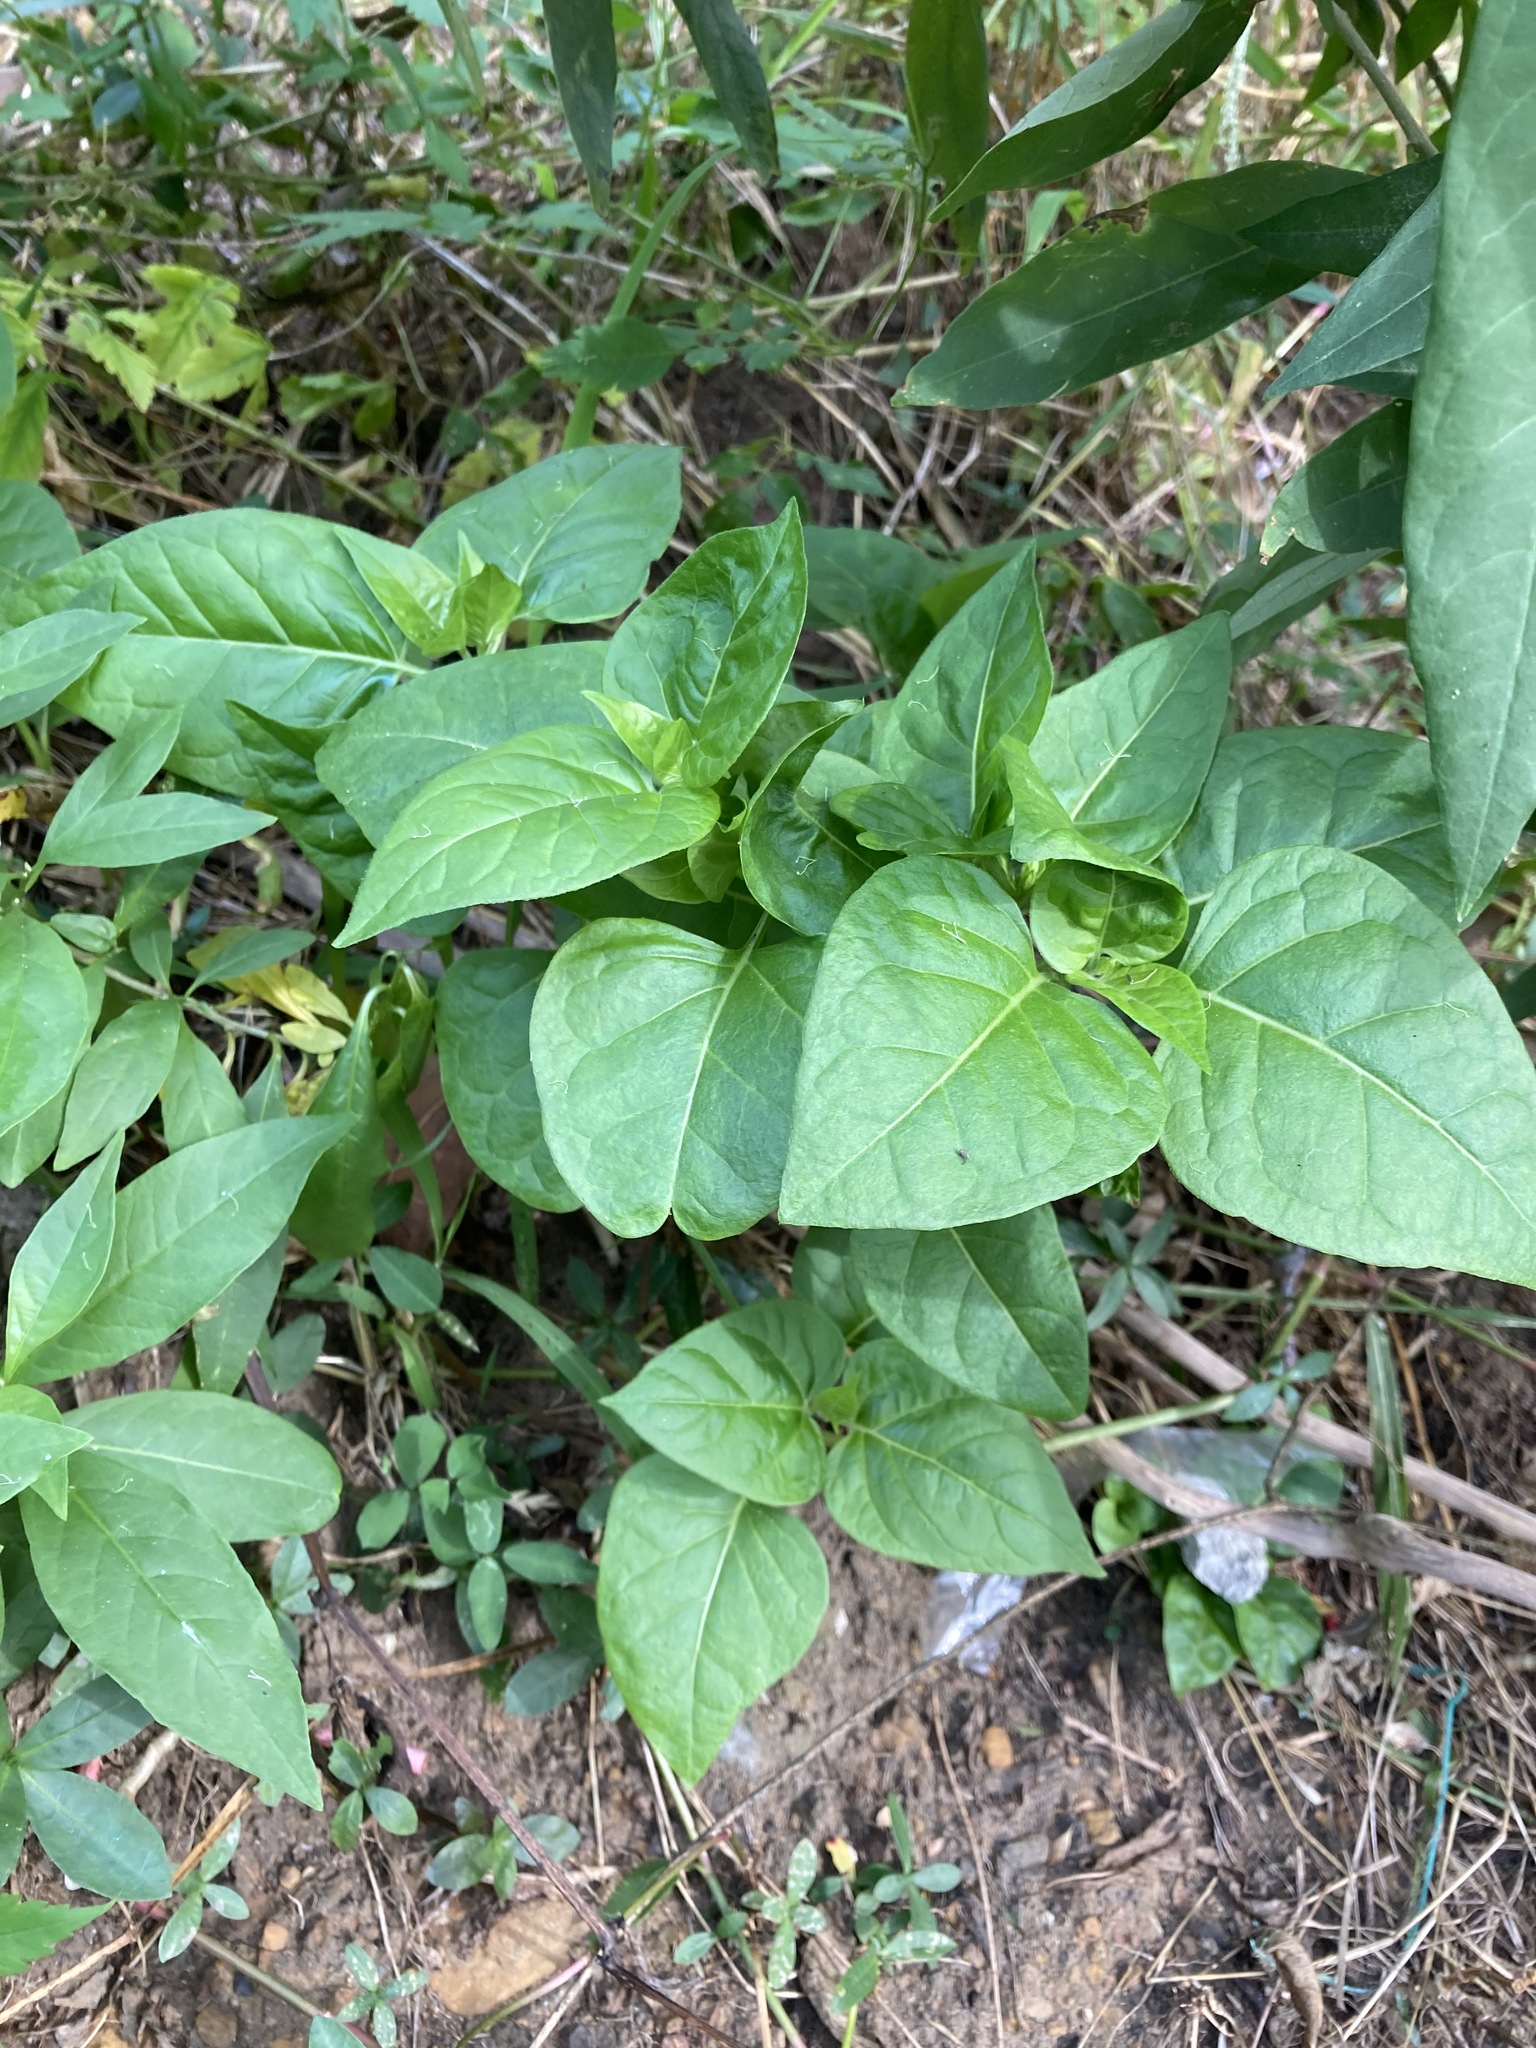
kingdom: Plantae
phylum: Tracheophyta
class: Magnoliopsida
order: Caryophyllales
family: Nyctaginaceae
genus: Mirabilis
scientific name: Mirabilis jalapa
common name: Marvel-of-peru
